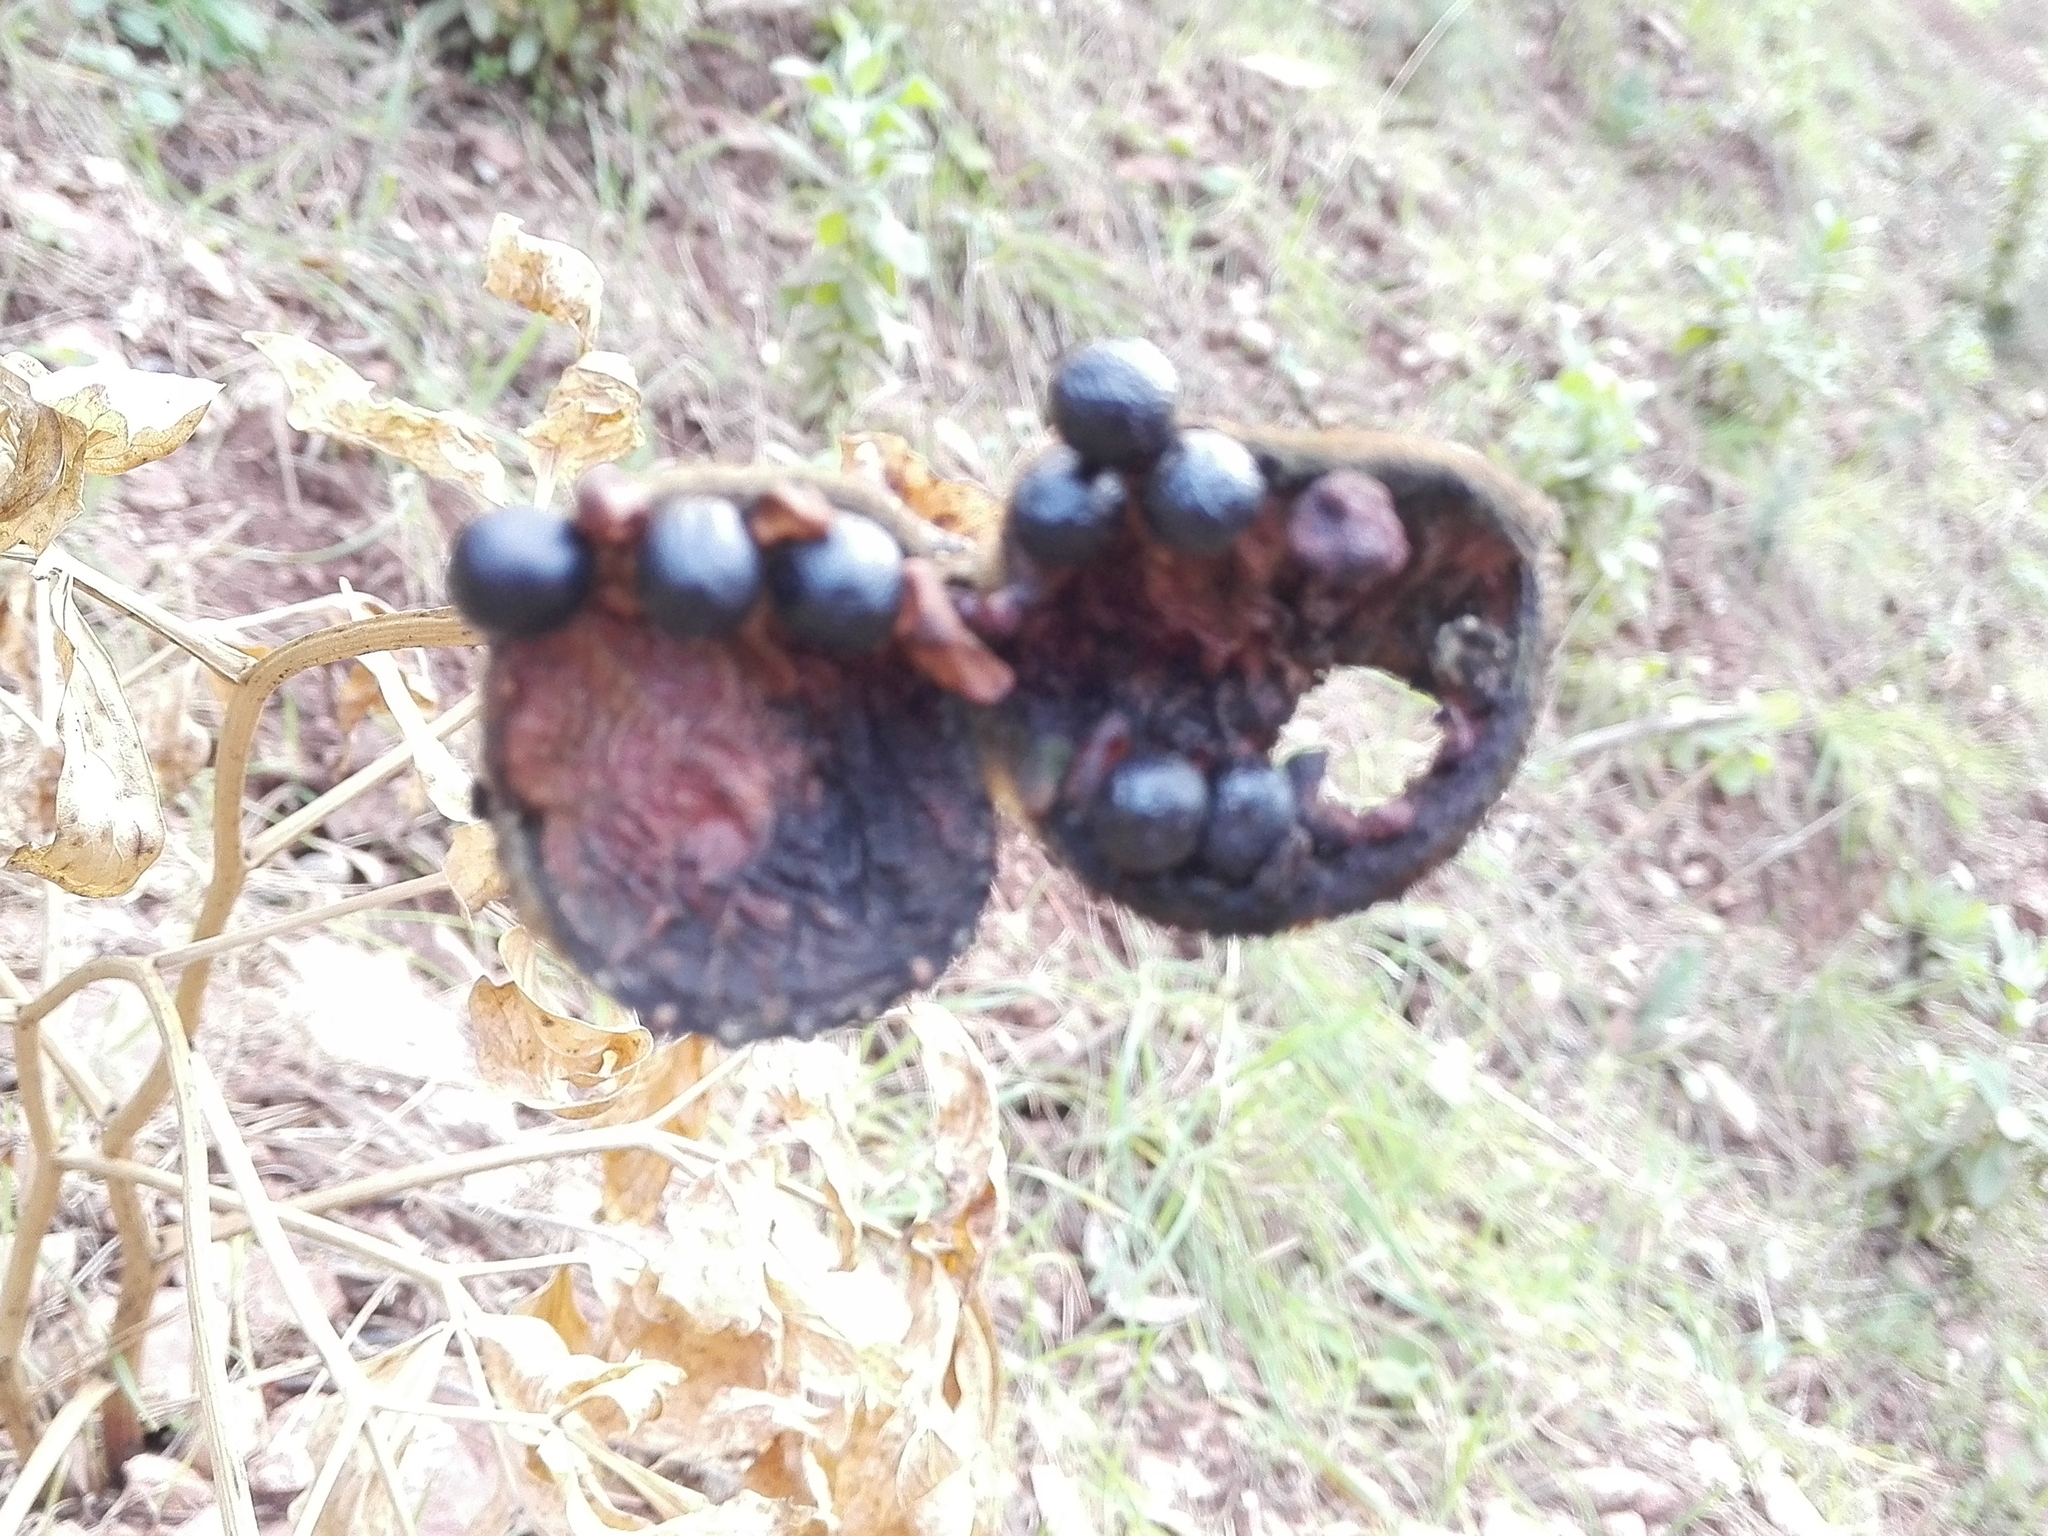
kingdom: Plantae
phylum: Tracheophyta
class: Magnoliopsida
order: Saxifragales
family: Paeoniaceae
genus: Paeonia
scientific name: Paeonia broteroi
